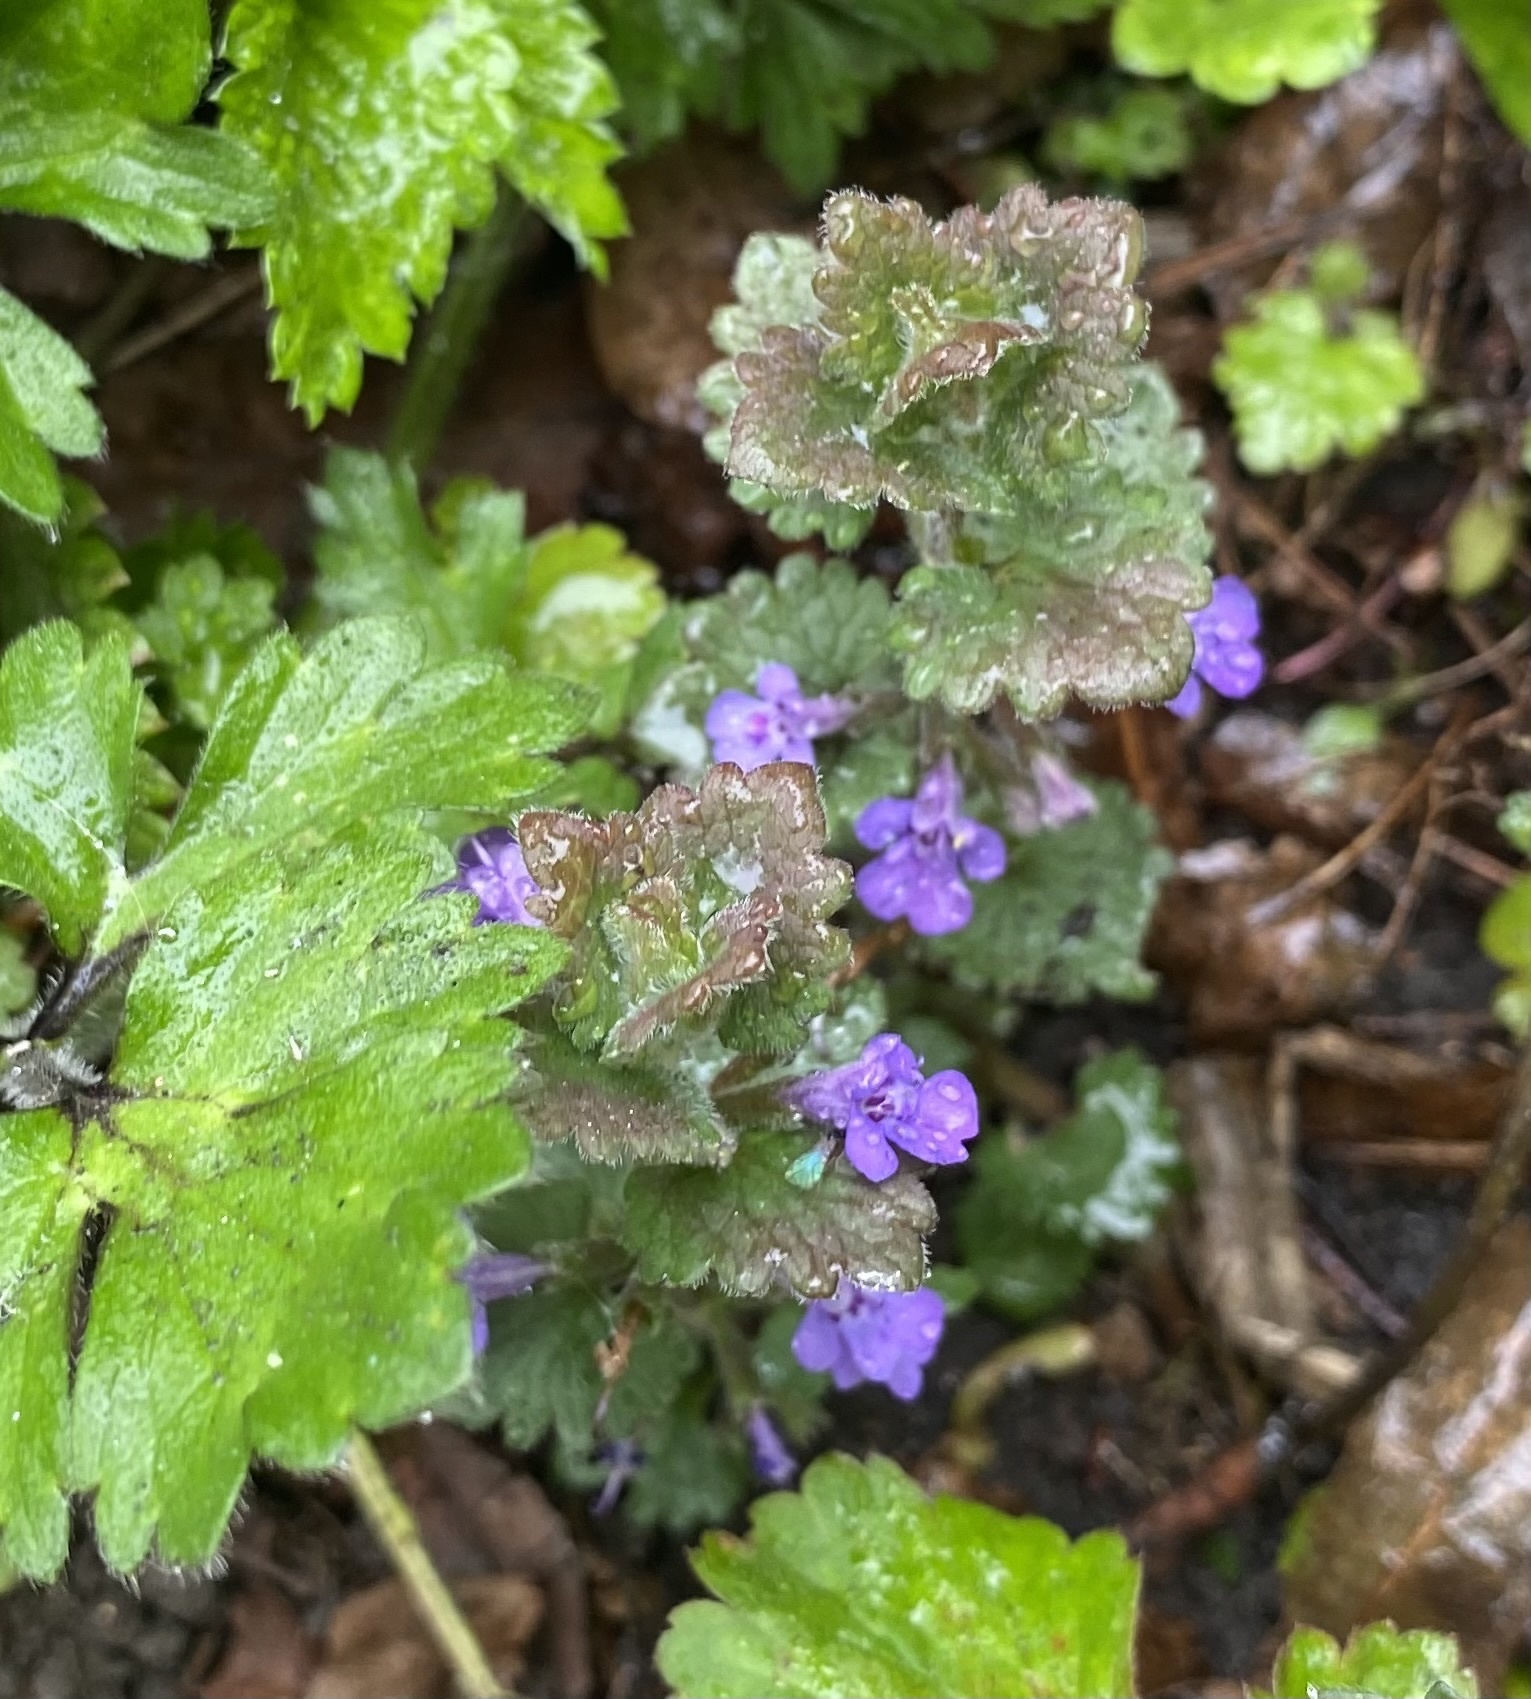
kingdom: Plantae
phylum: Tracheophyta
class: Magnoliopsida
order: Lamiales
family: Lamiaceae
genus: Glechoma
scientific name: Glechoma hederacea
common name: Ground ivy
